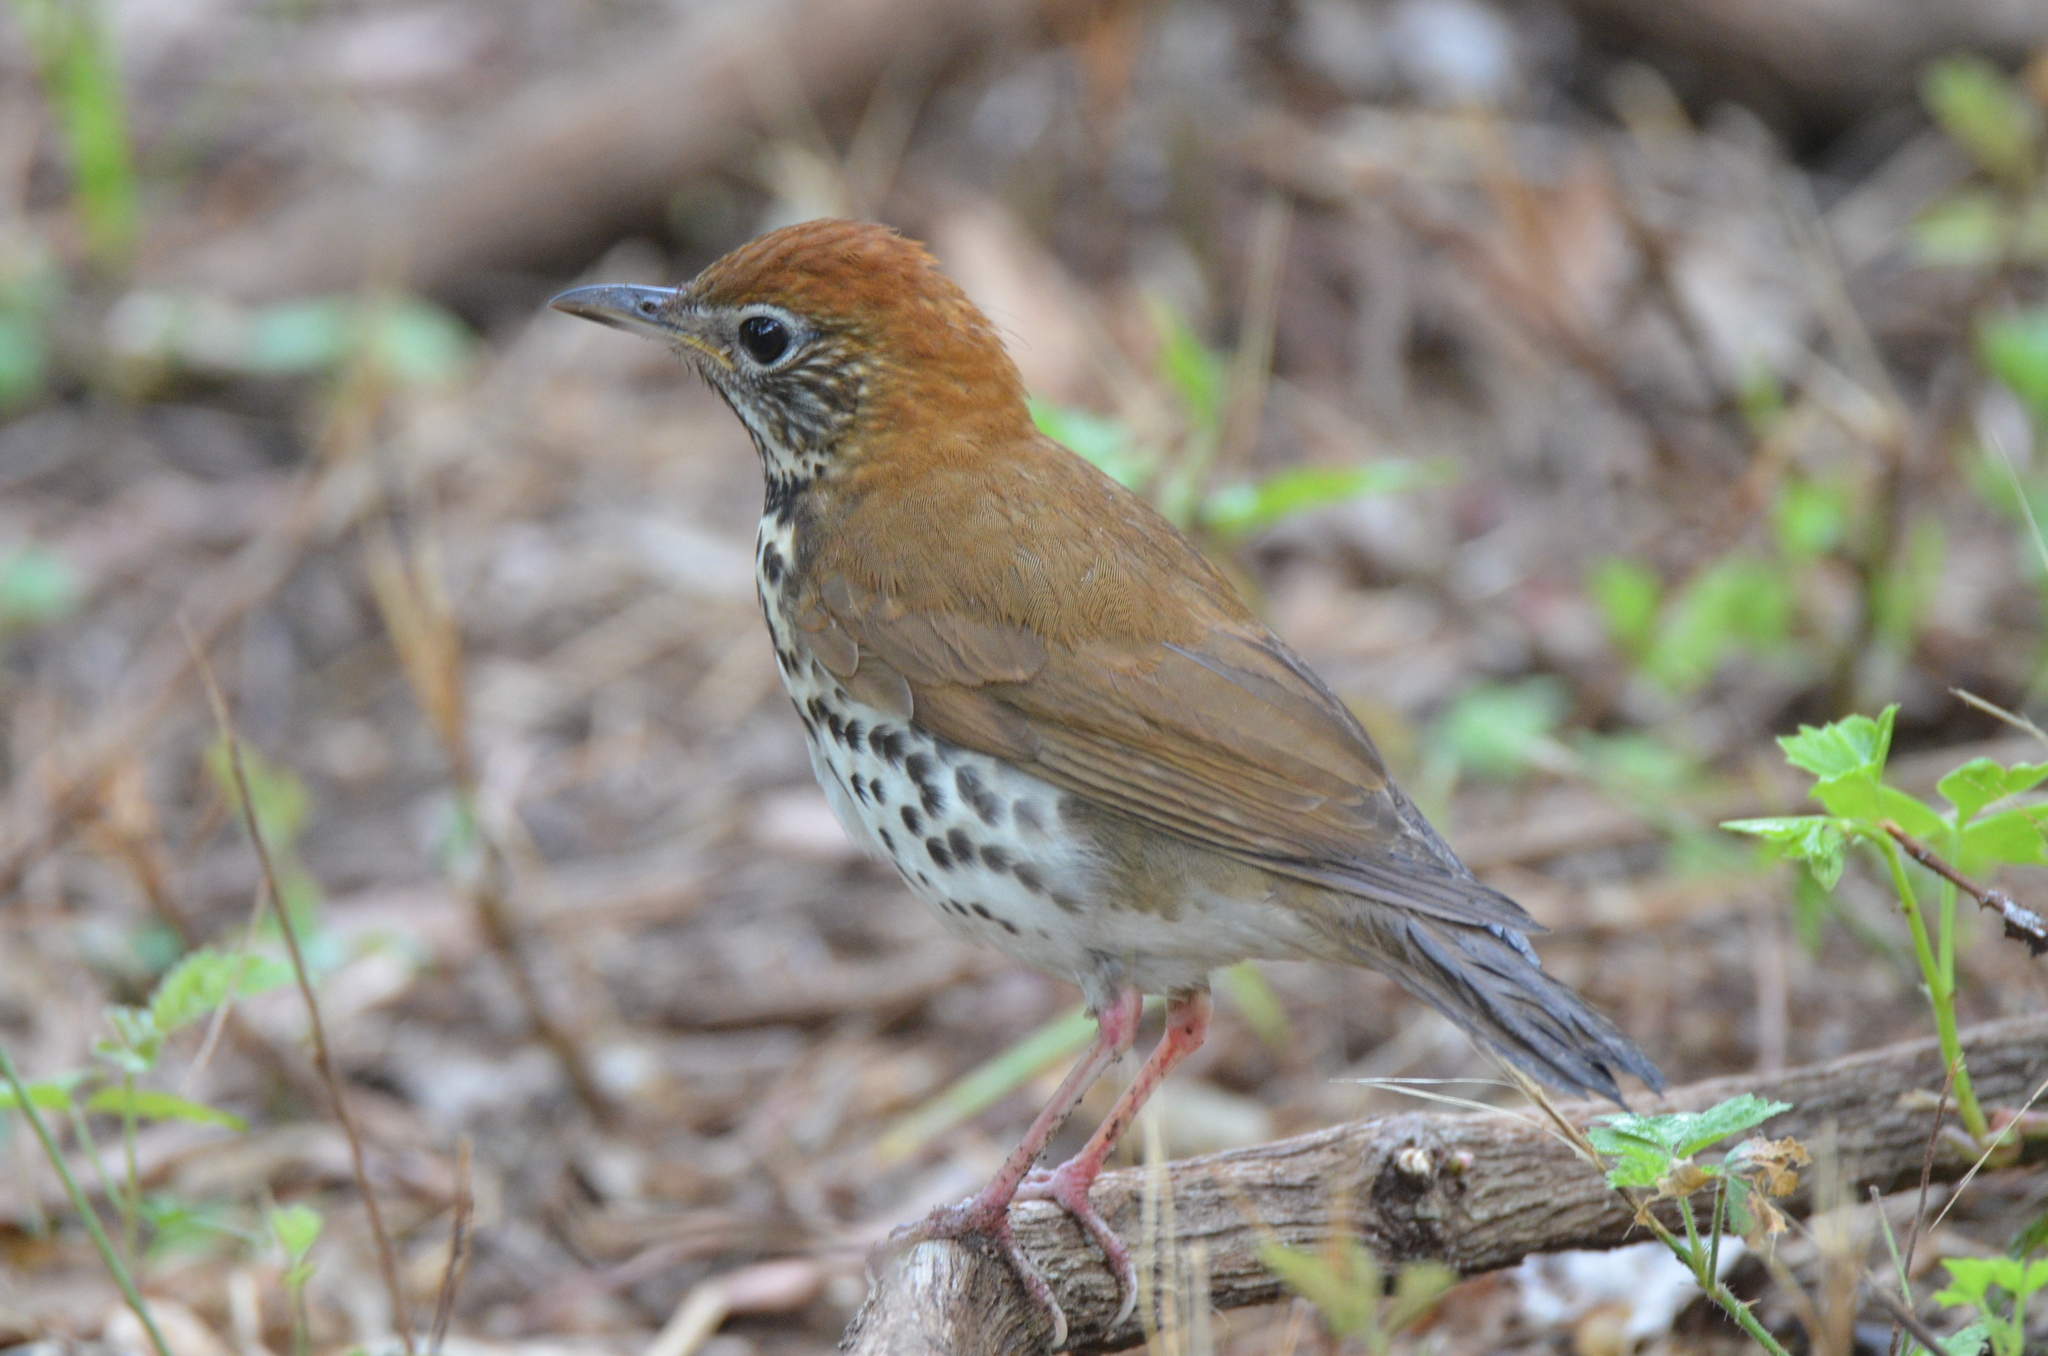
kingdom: Animalia
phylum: Chordata
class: Aves
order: Passeriformes
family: Turdidae
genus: Hylocichla
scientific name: Hylocichla mustelina
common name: Wood thrush
